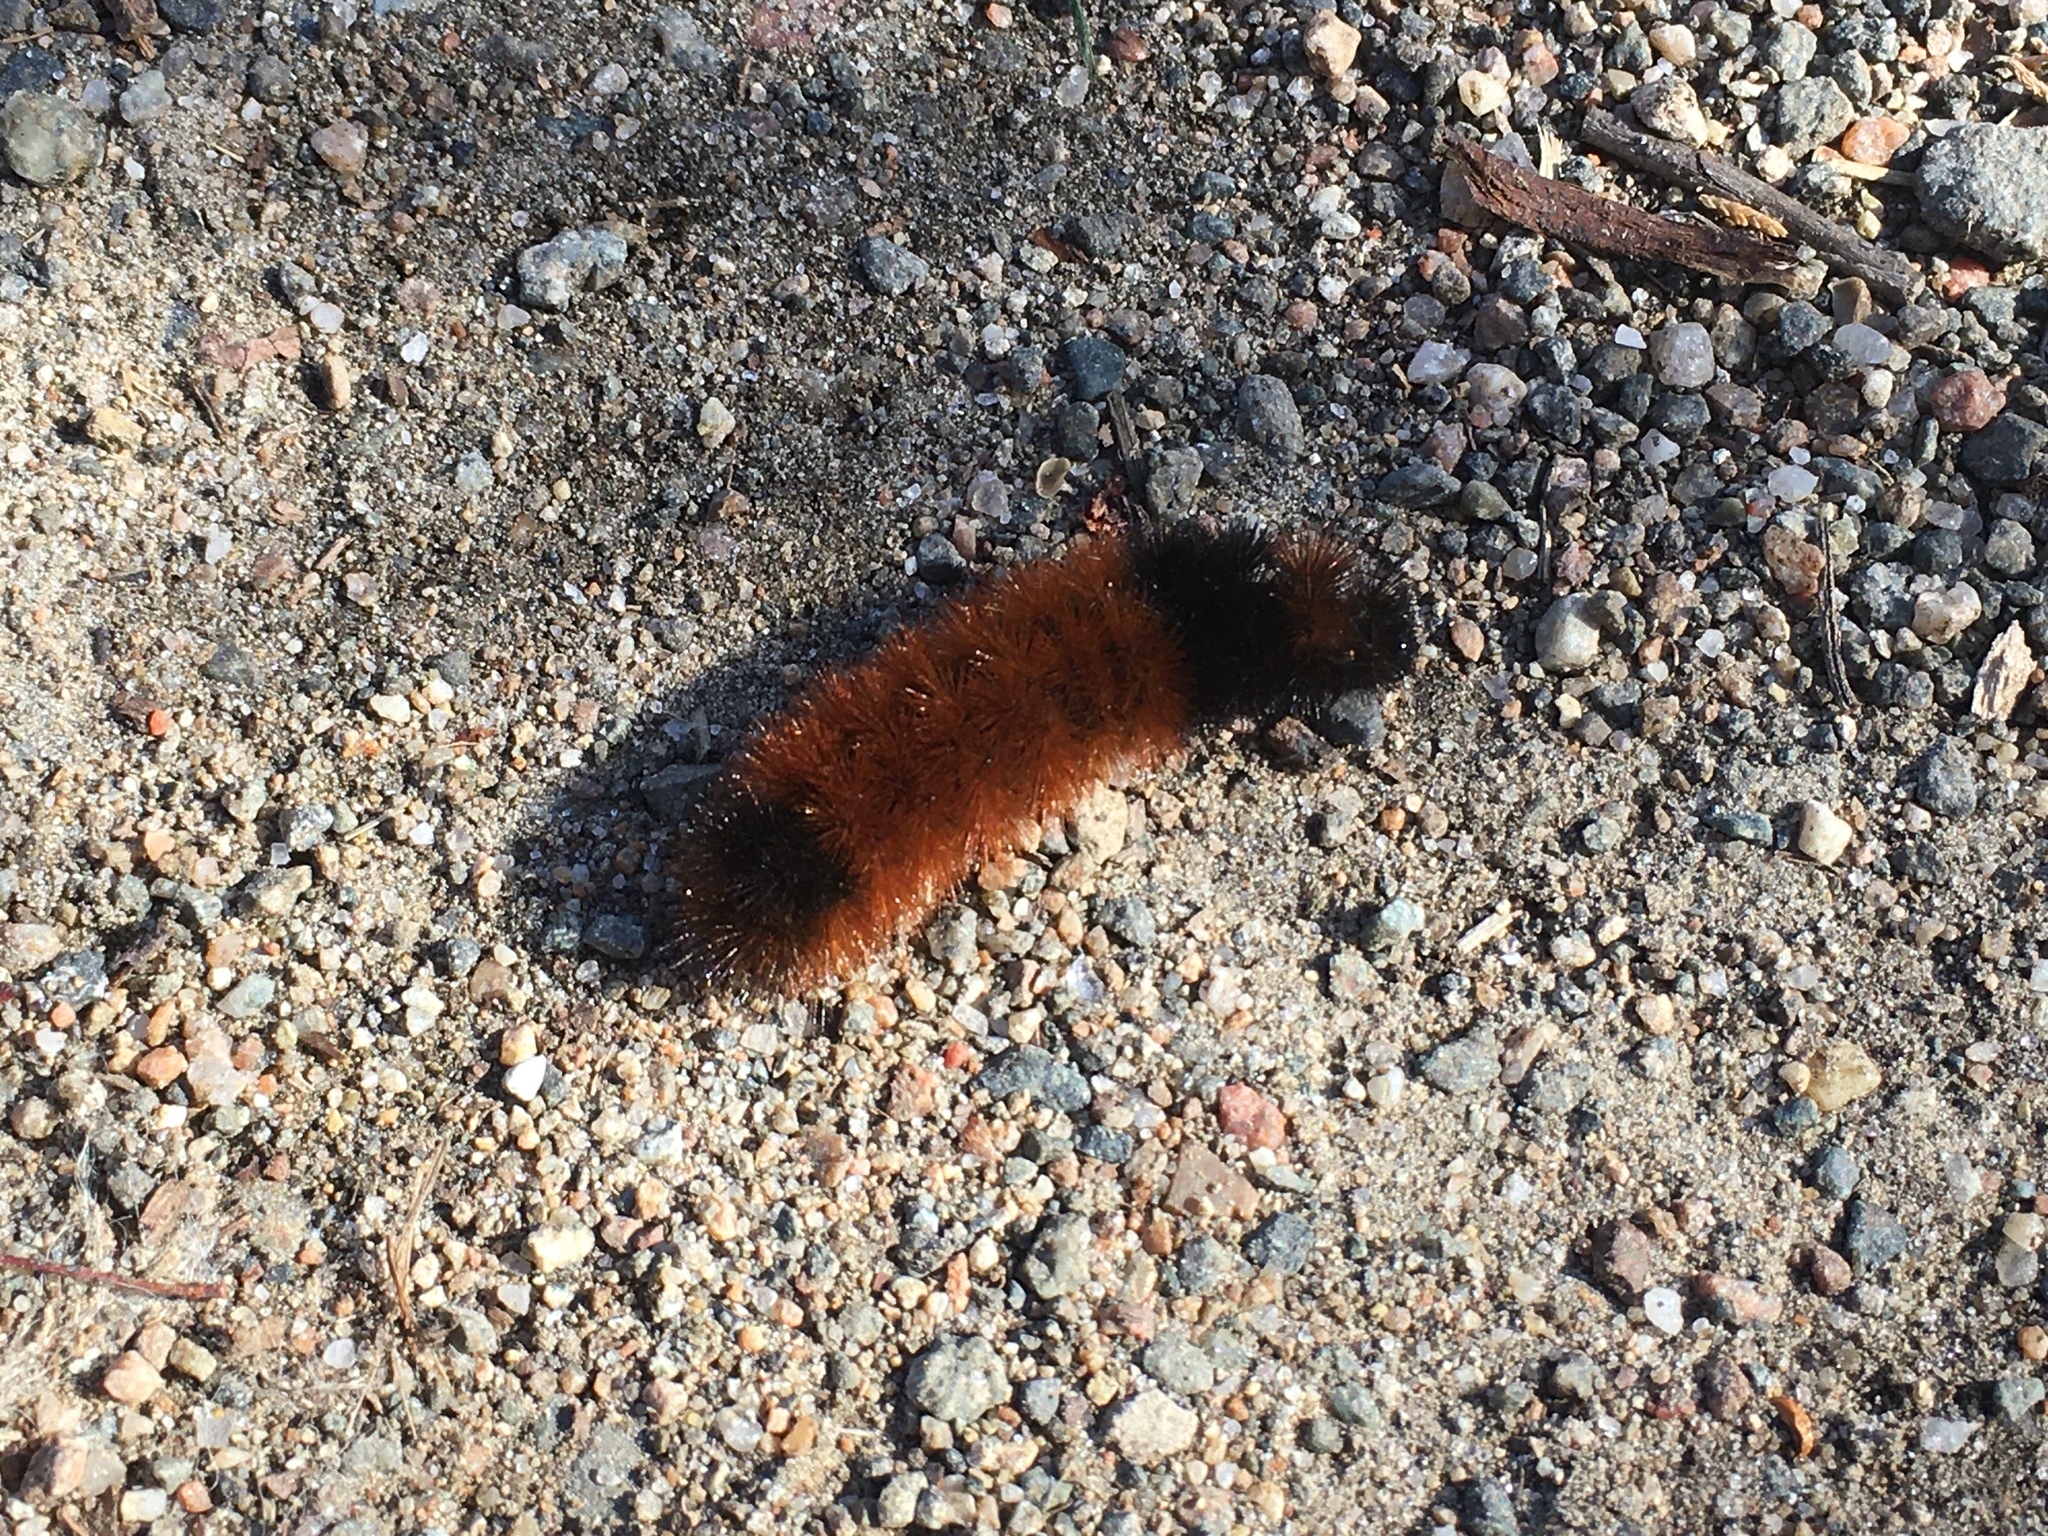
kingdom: Animalia
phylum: Arthropoda
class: Insecta
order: Lepidoptera
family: Erebidae
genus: Pyrrharctia
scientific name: Pyrrharctia isabella
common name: Isabella tiger moth
